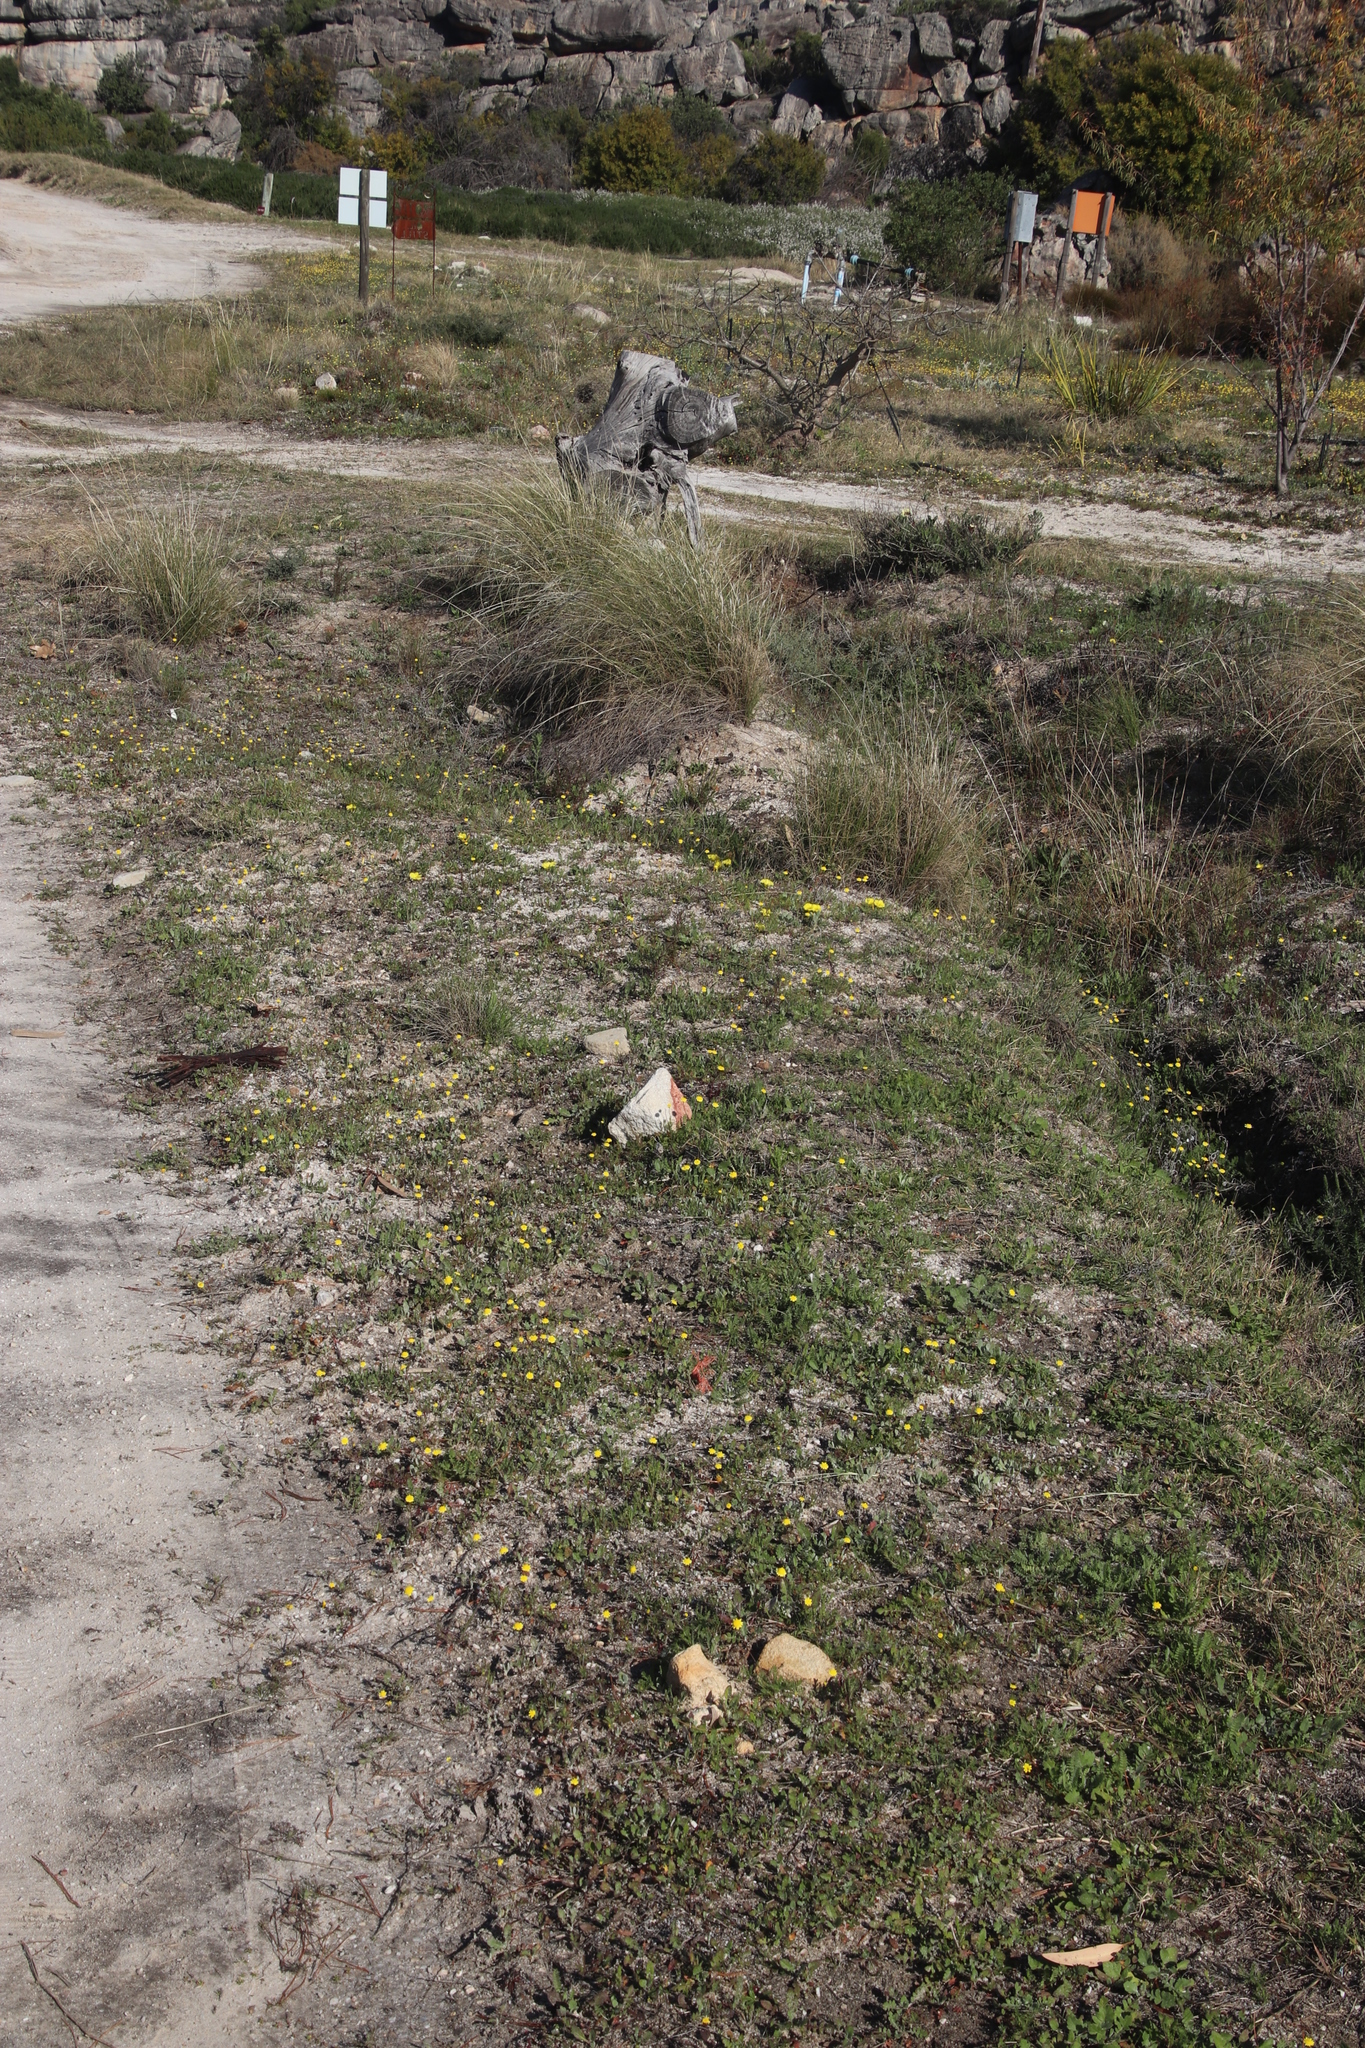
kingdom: Plantae
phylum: Tracheophyta
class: Magnoliopsida
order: Asterales
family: Asteraceae
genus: Cotula
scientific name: Cotula pruinosa
